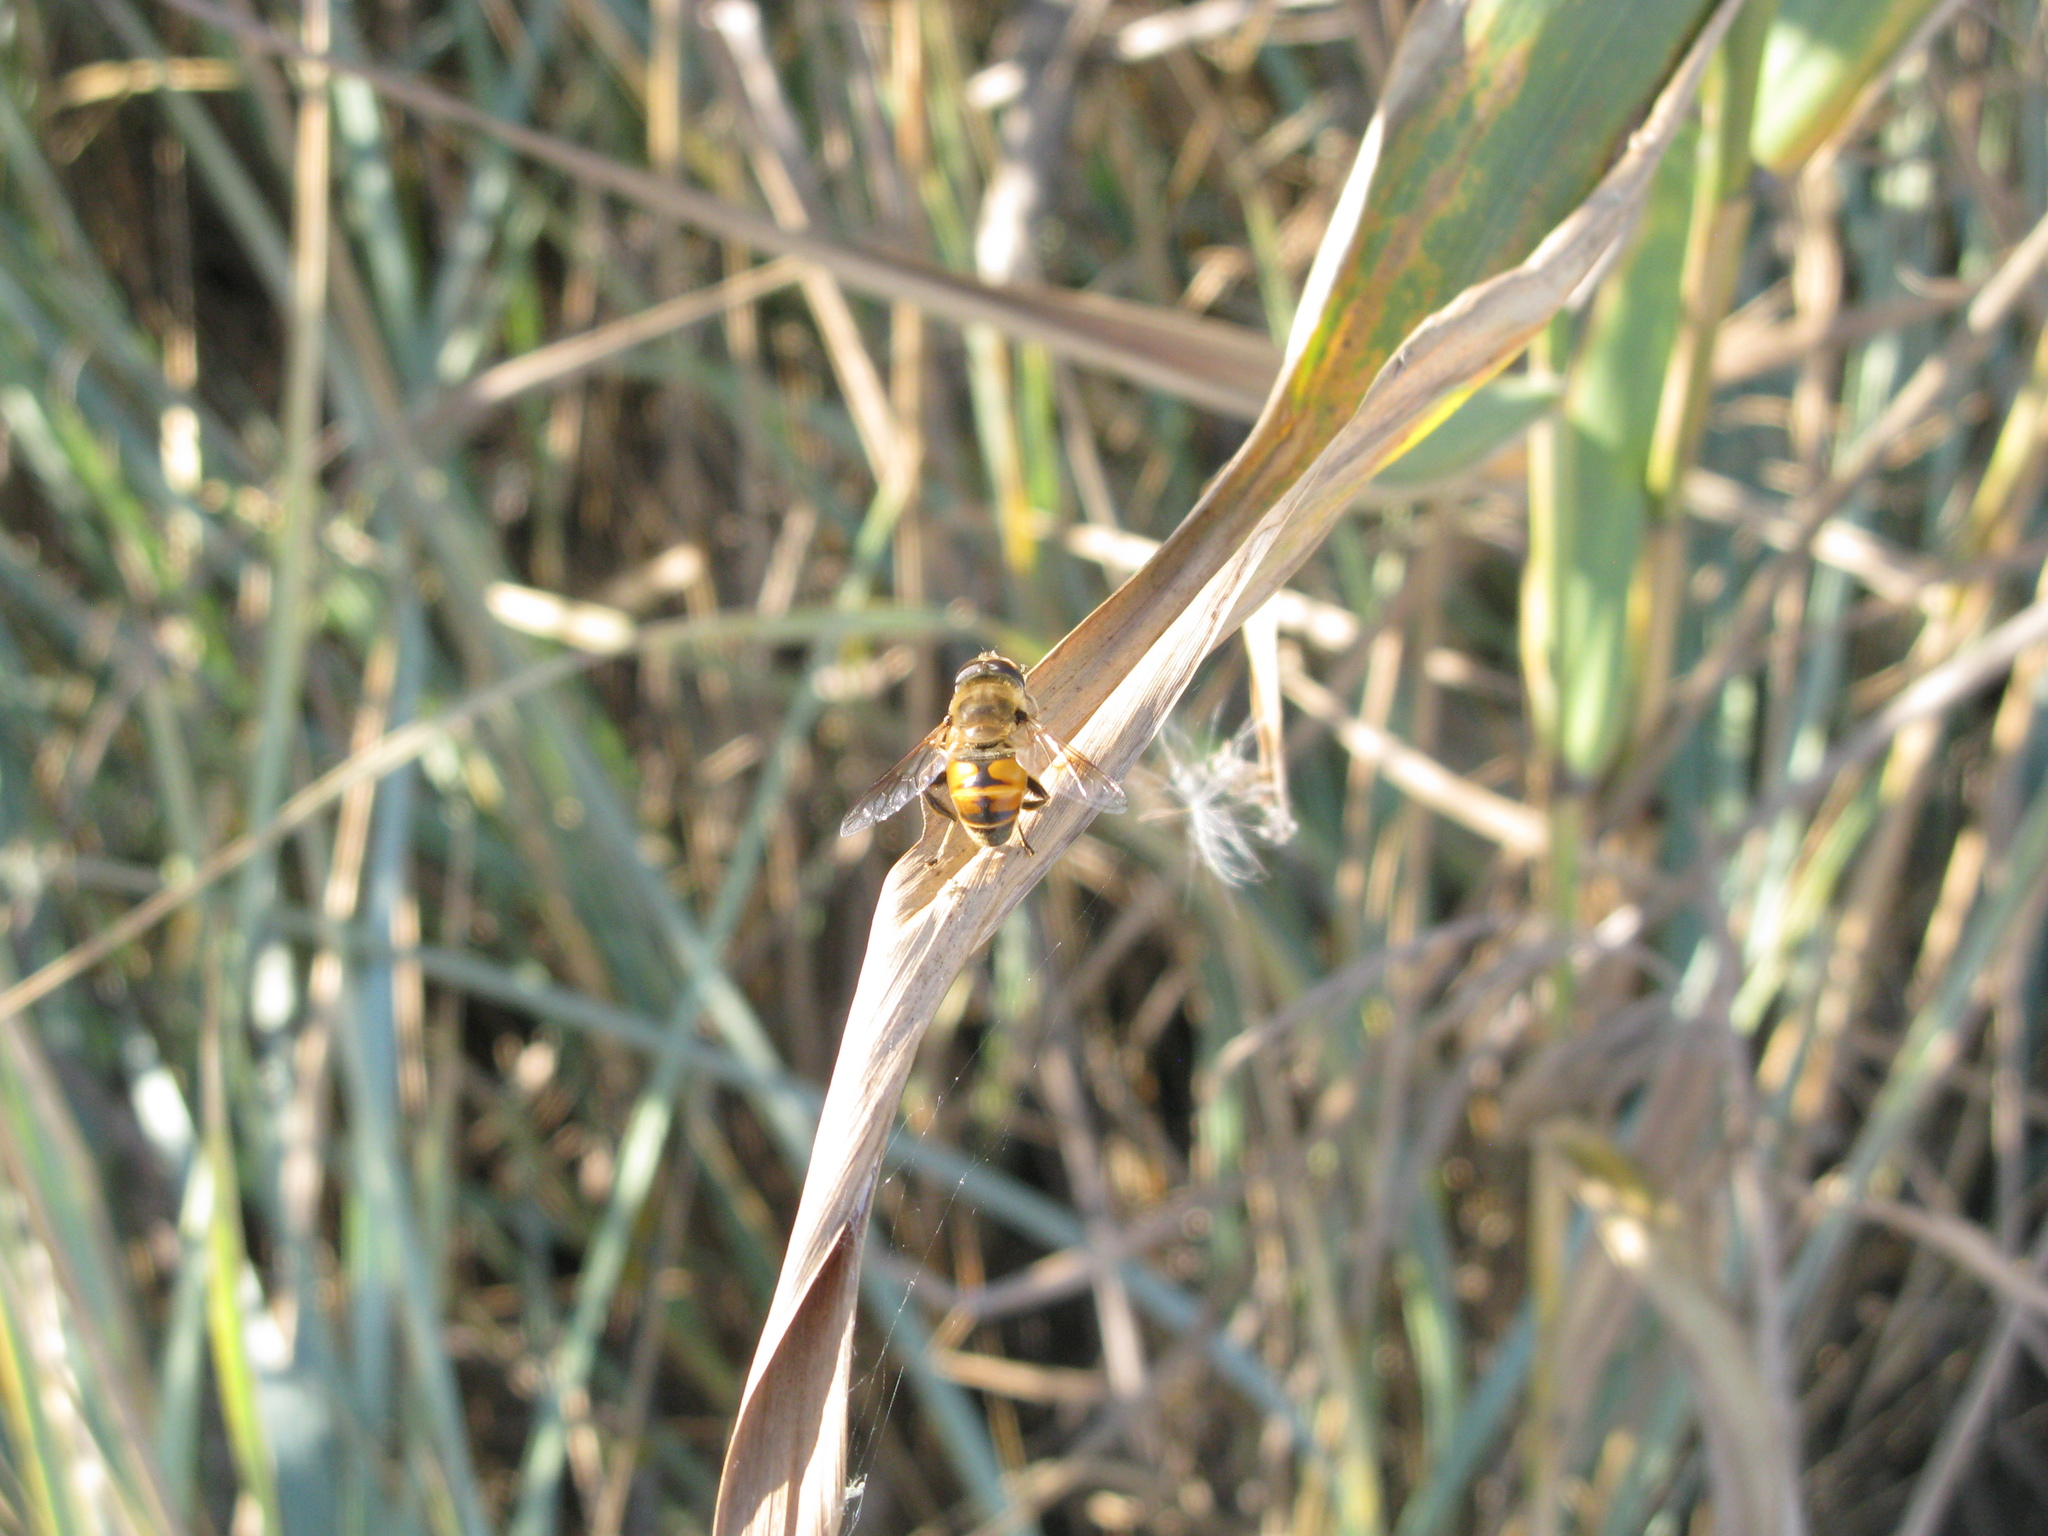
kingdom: Animalia
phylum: Arthropoda
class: Insecta
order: Diptera
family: Syrphidae
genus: Eristalis
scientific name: Eristalis tenax
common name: Drone fly
